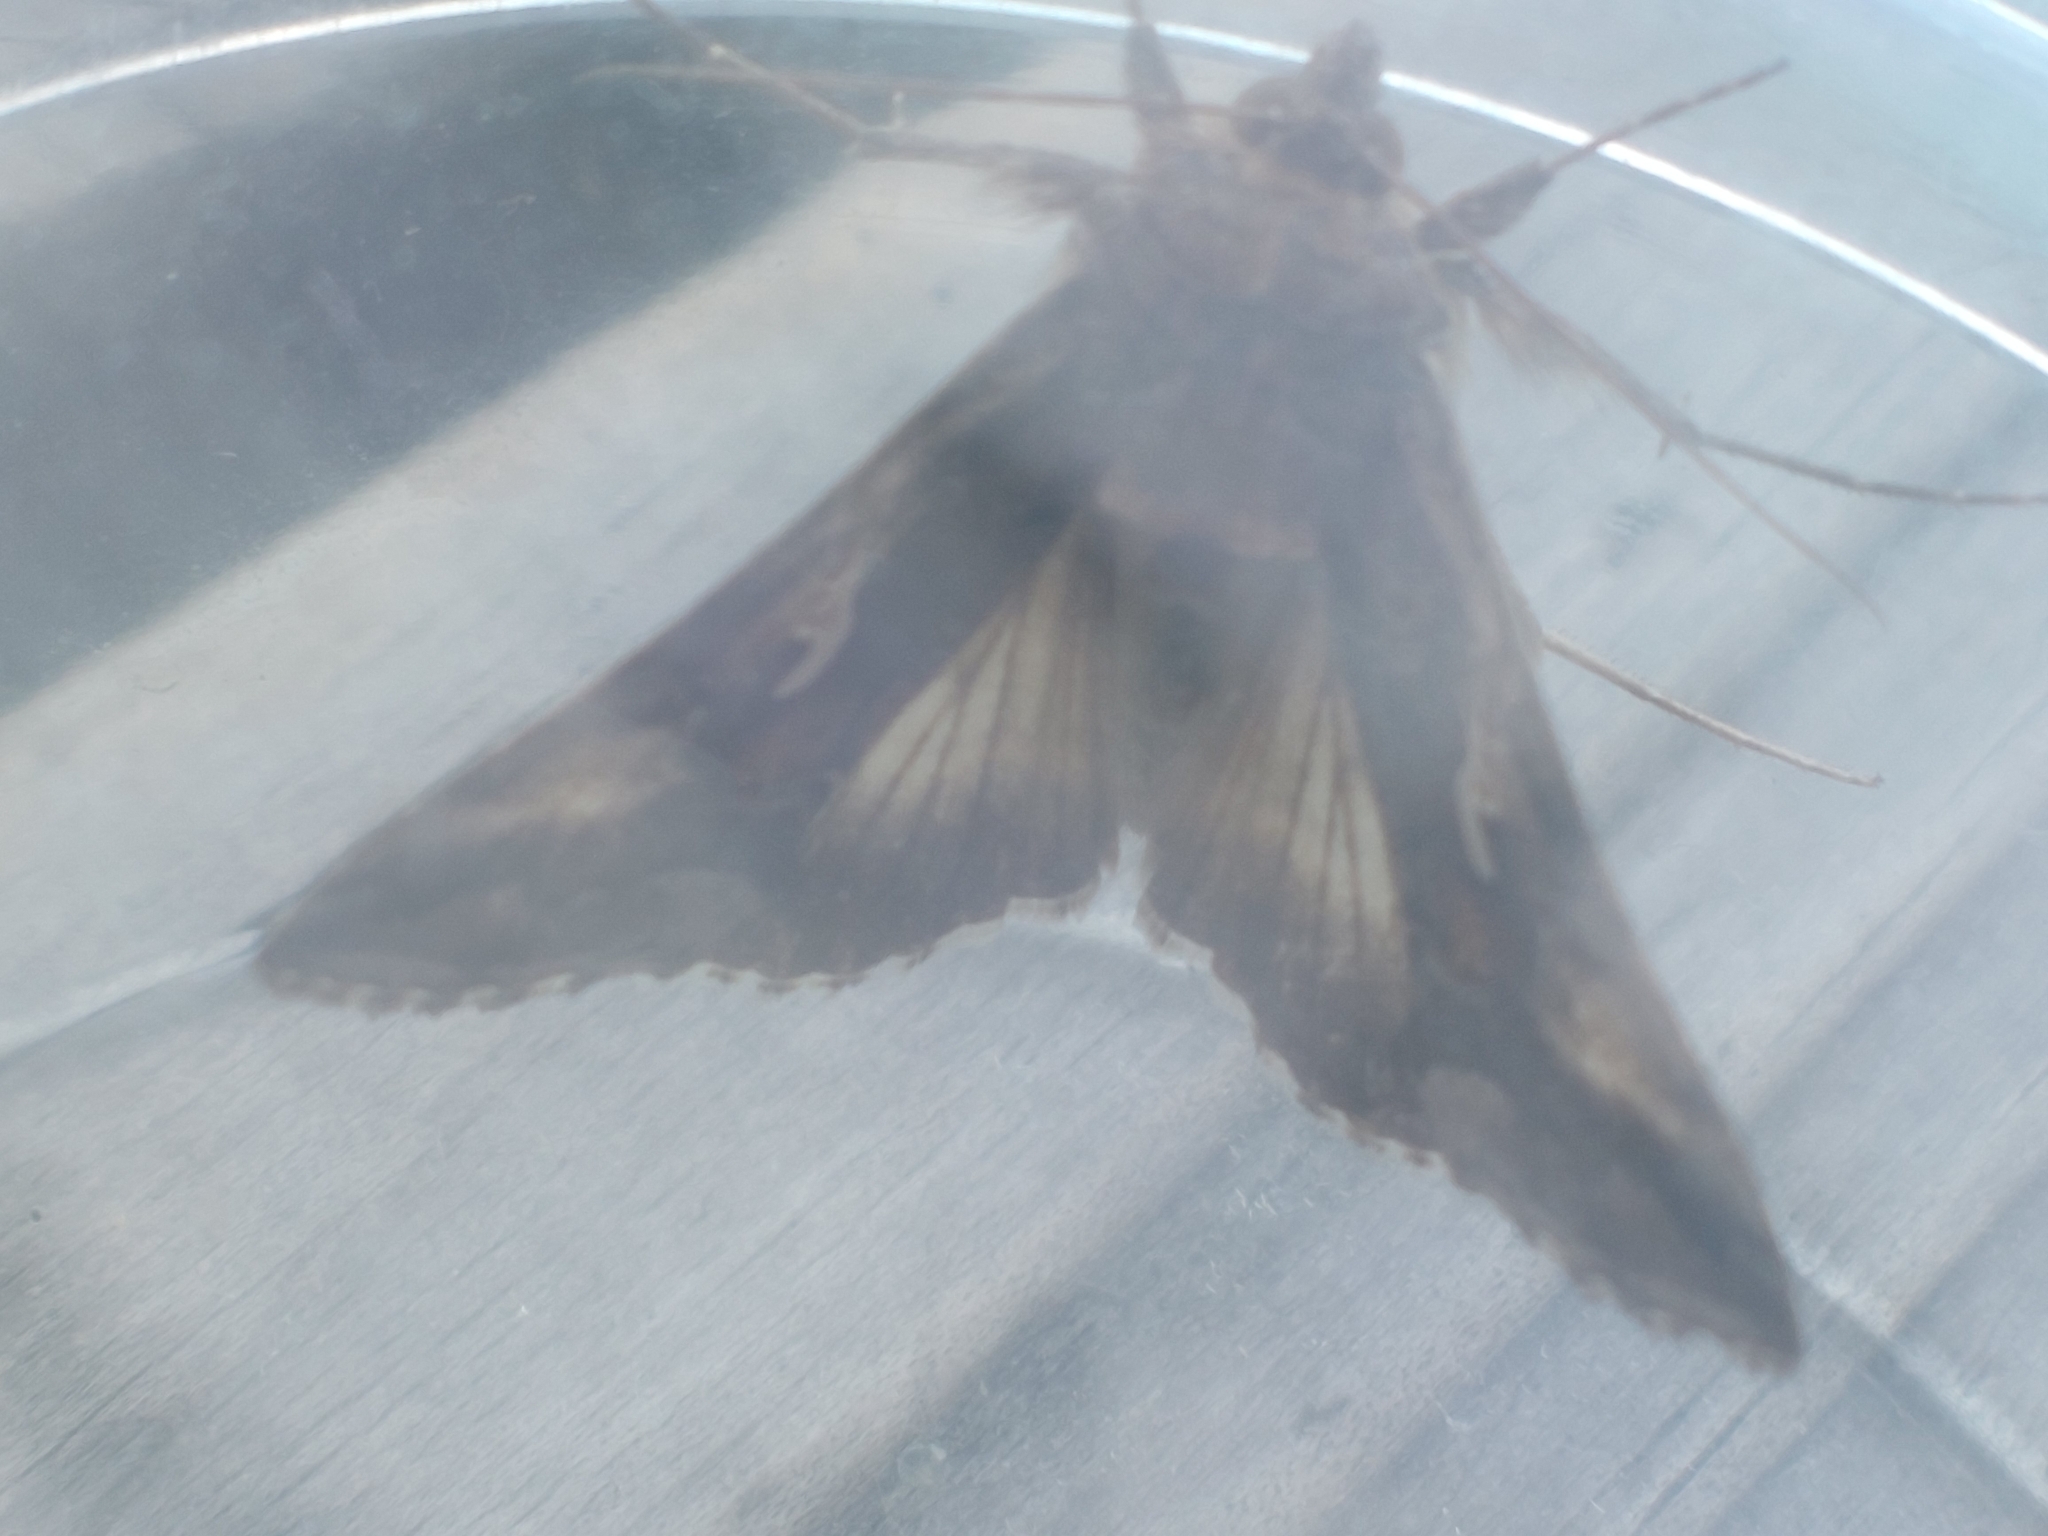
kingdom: Animalia
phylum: Arthropoda
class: Insecta
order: Lepidoptera
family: Noctuidae
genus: Autographa
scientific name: Autographa gamma
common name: Silver y
